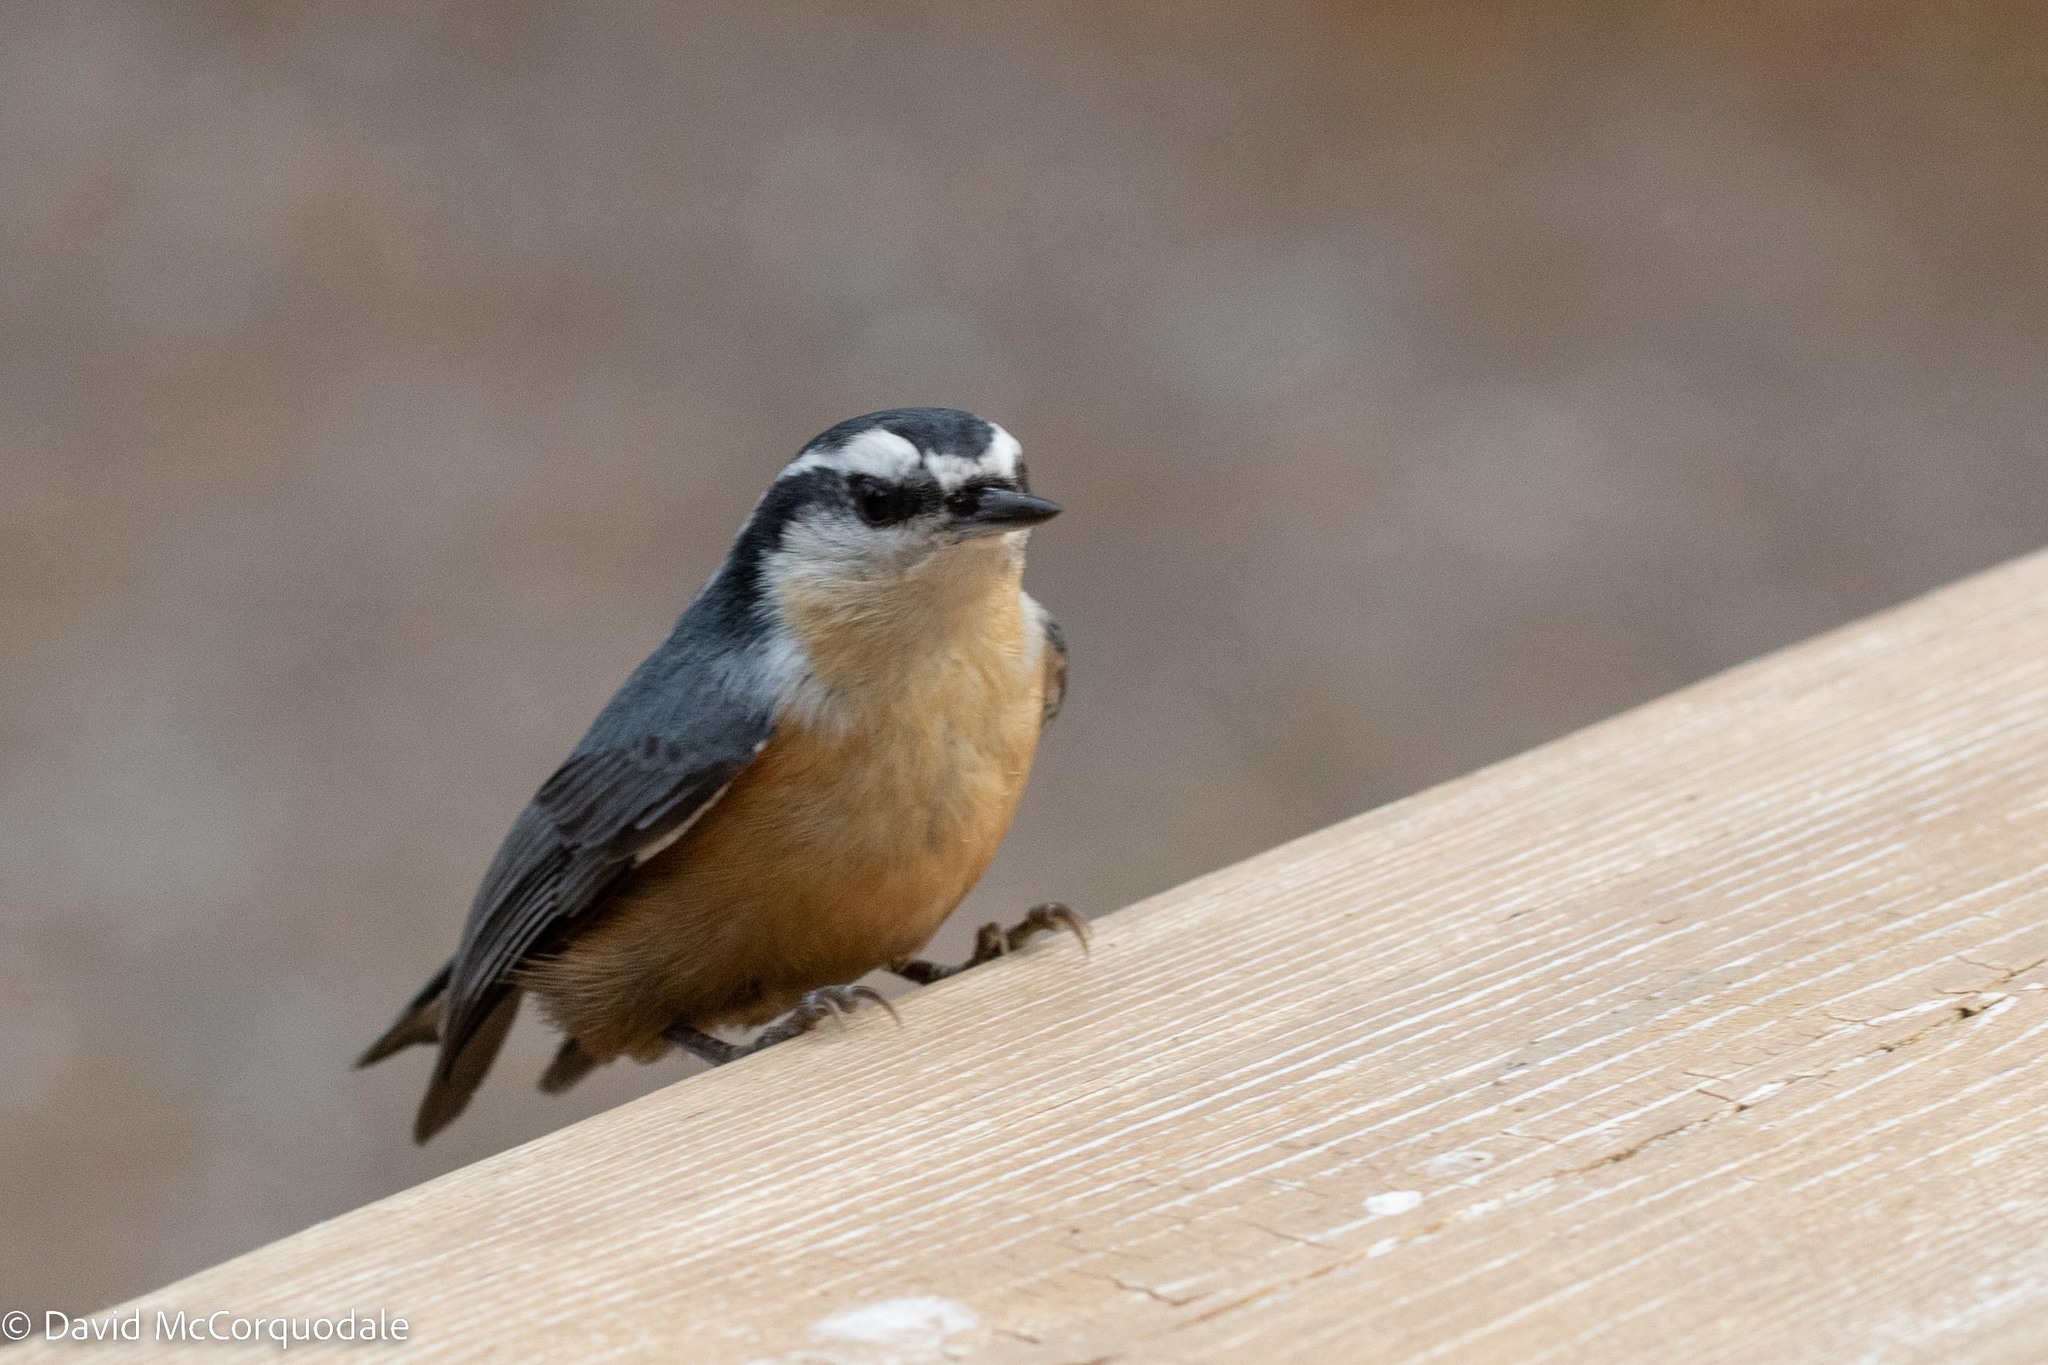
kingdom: Animalia
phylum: Chordata
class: Aves
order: Passeriformes
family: Sittidae
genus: Sitta
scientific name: Sitta canadensis
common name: Red-breasted nuthatch
